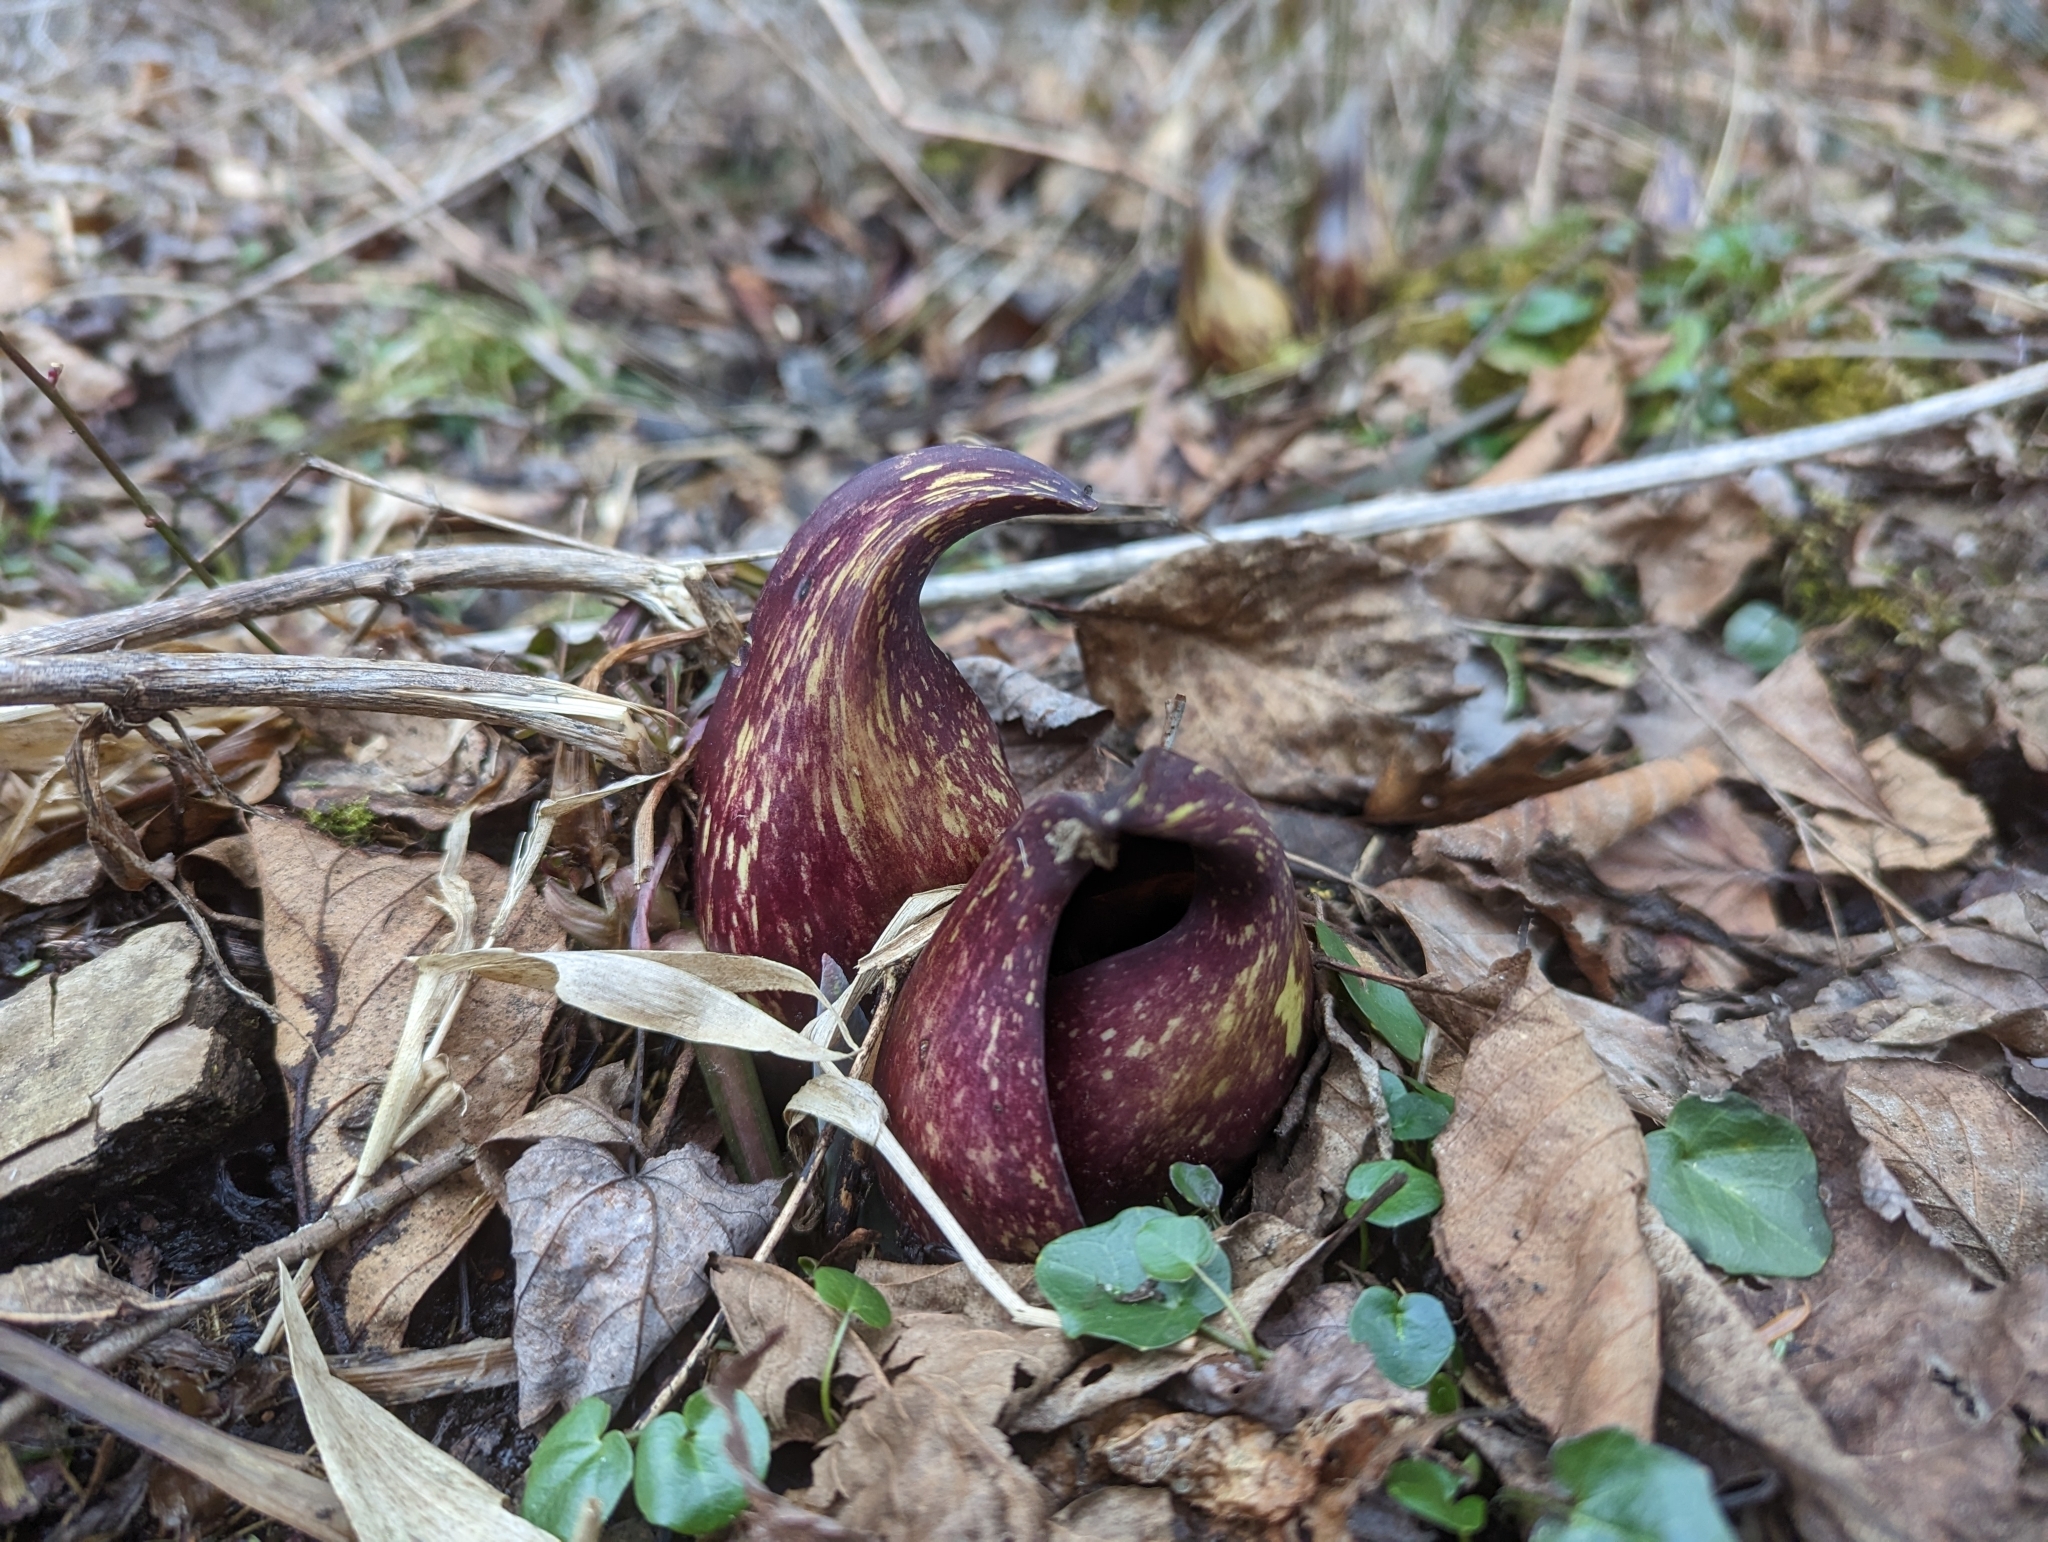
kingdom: Plantae
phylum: Tracheophyta
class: Liliopsida
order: Alismatales
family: Araceae
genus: Symplocarpus
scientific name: Symplocarpus foetidus
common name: Eastern skunk cabbage
